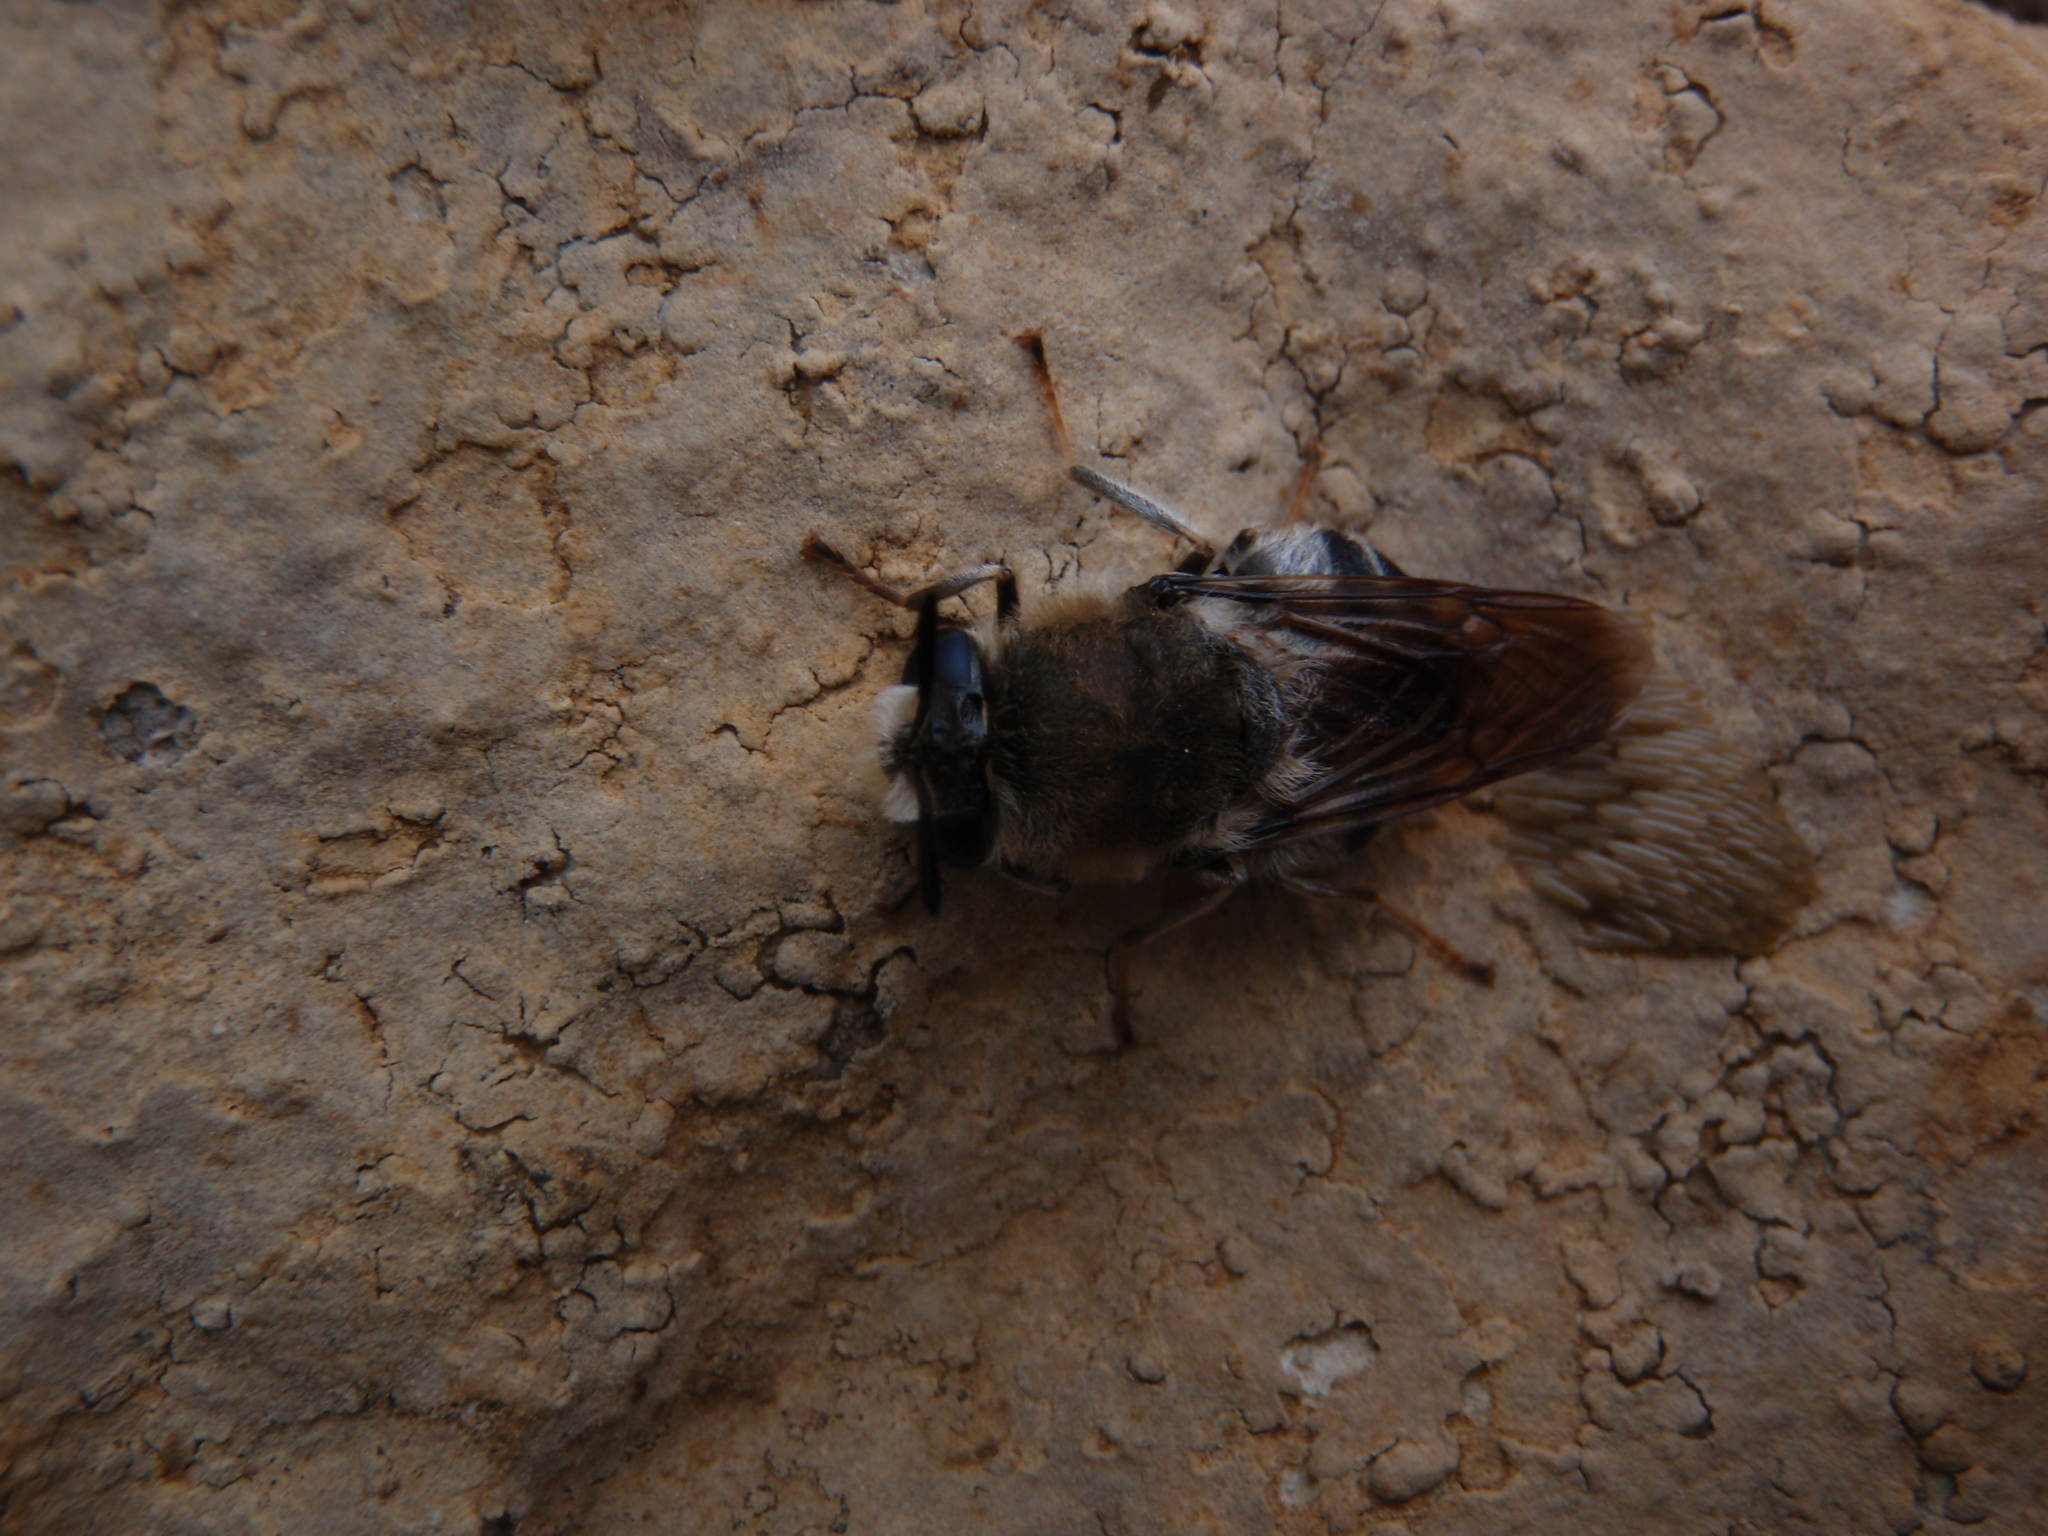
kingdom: Animalia
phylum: Arthropoda
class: Insecta
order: Diptera
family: Stratiomyidae
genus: Stratiomys
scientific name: Stratiomys longicornis
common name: Long-horned general
